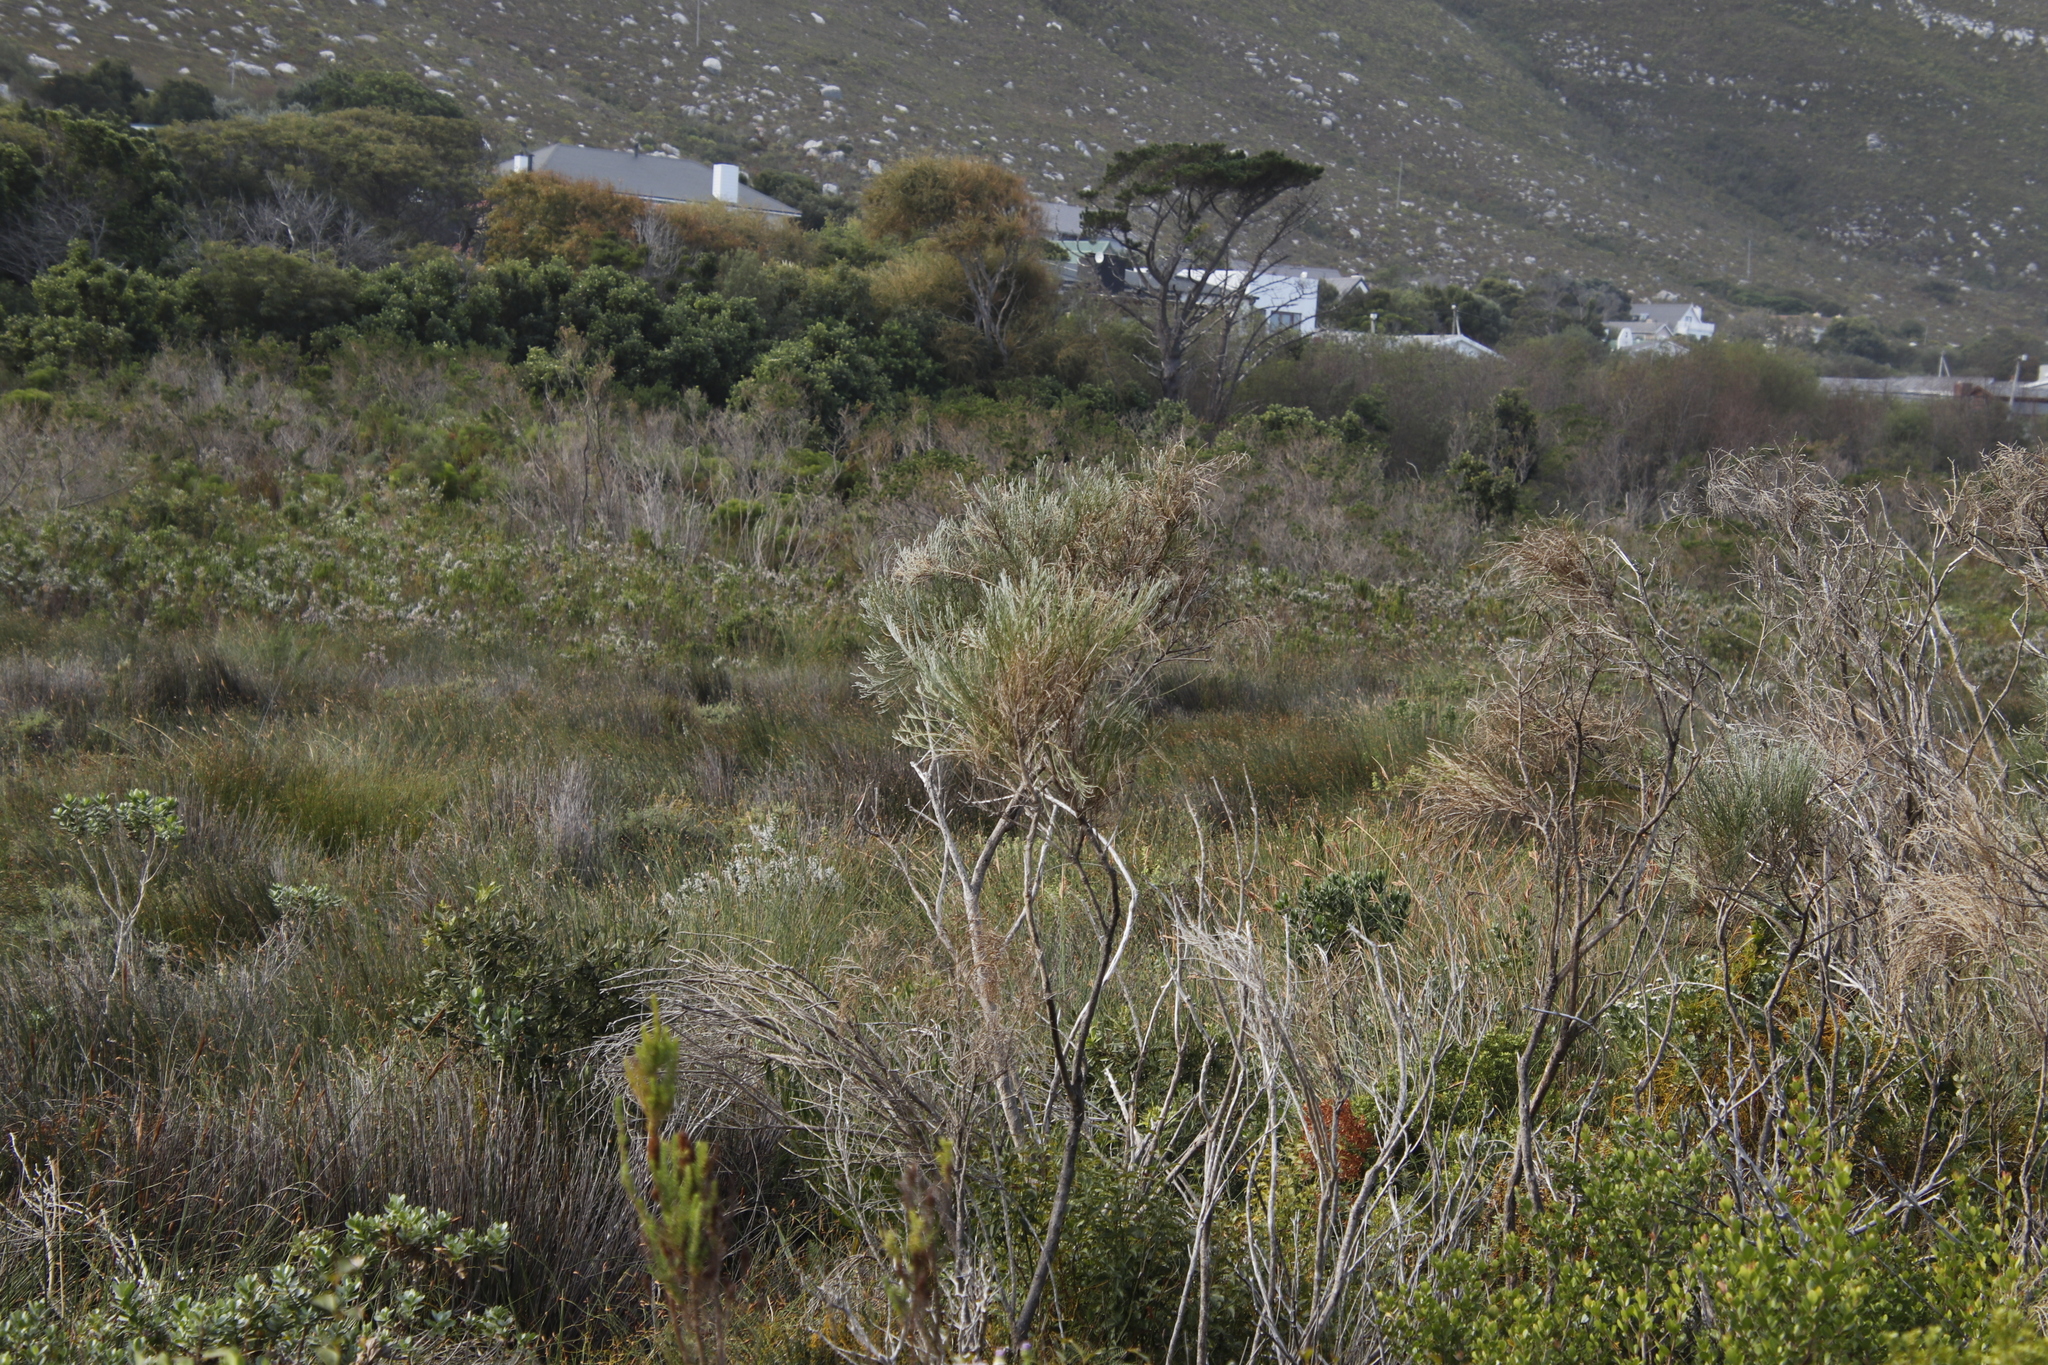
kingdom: Plantae
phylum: Tracheophyta
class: Magnoliopsida
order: Fabales
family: Fabaceae
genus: Psoralea
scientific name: Psoralea congesta
